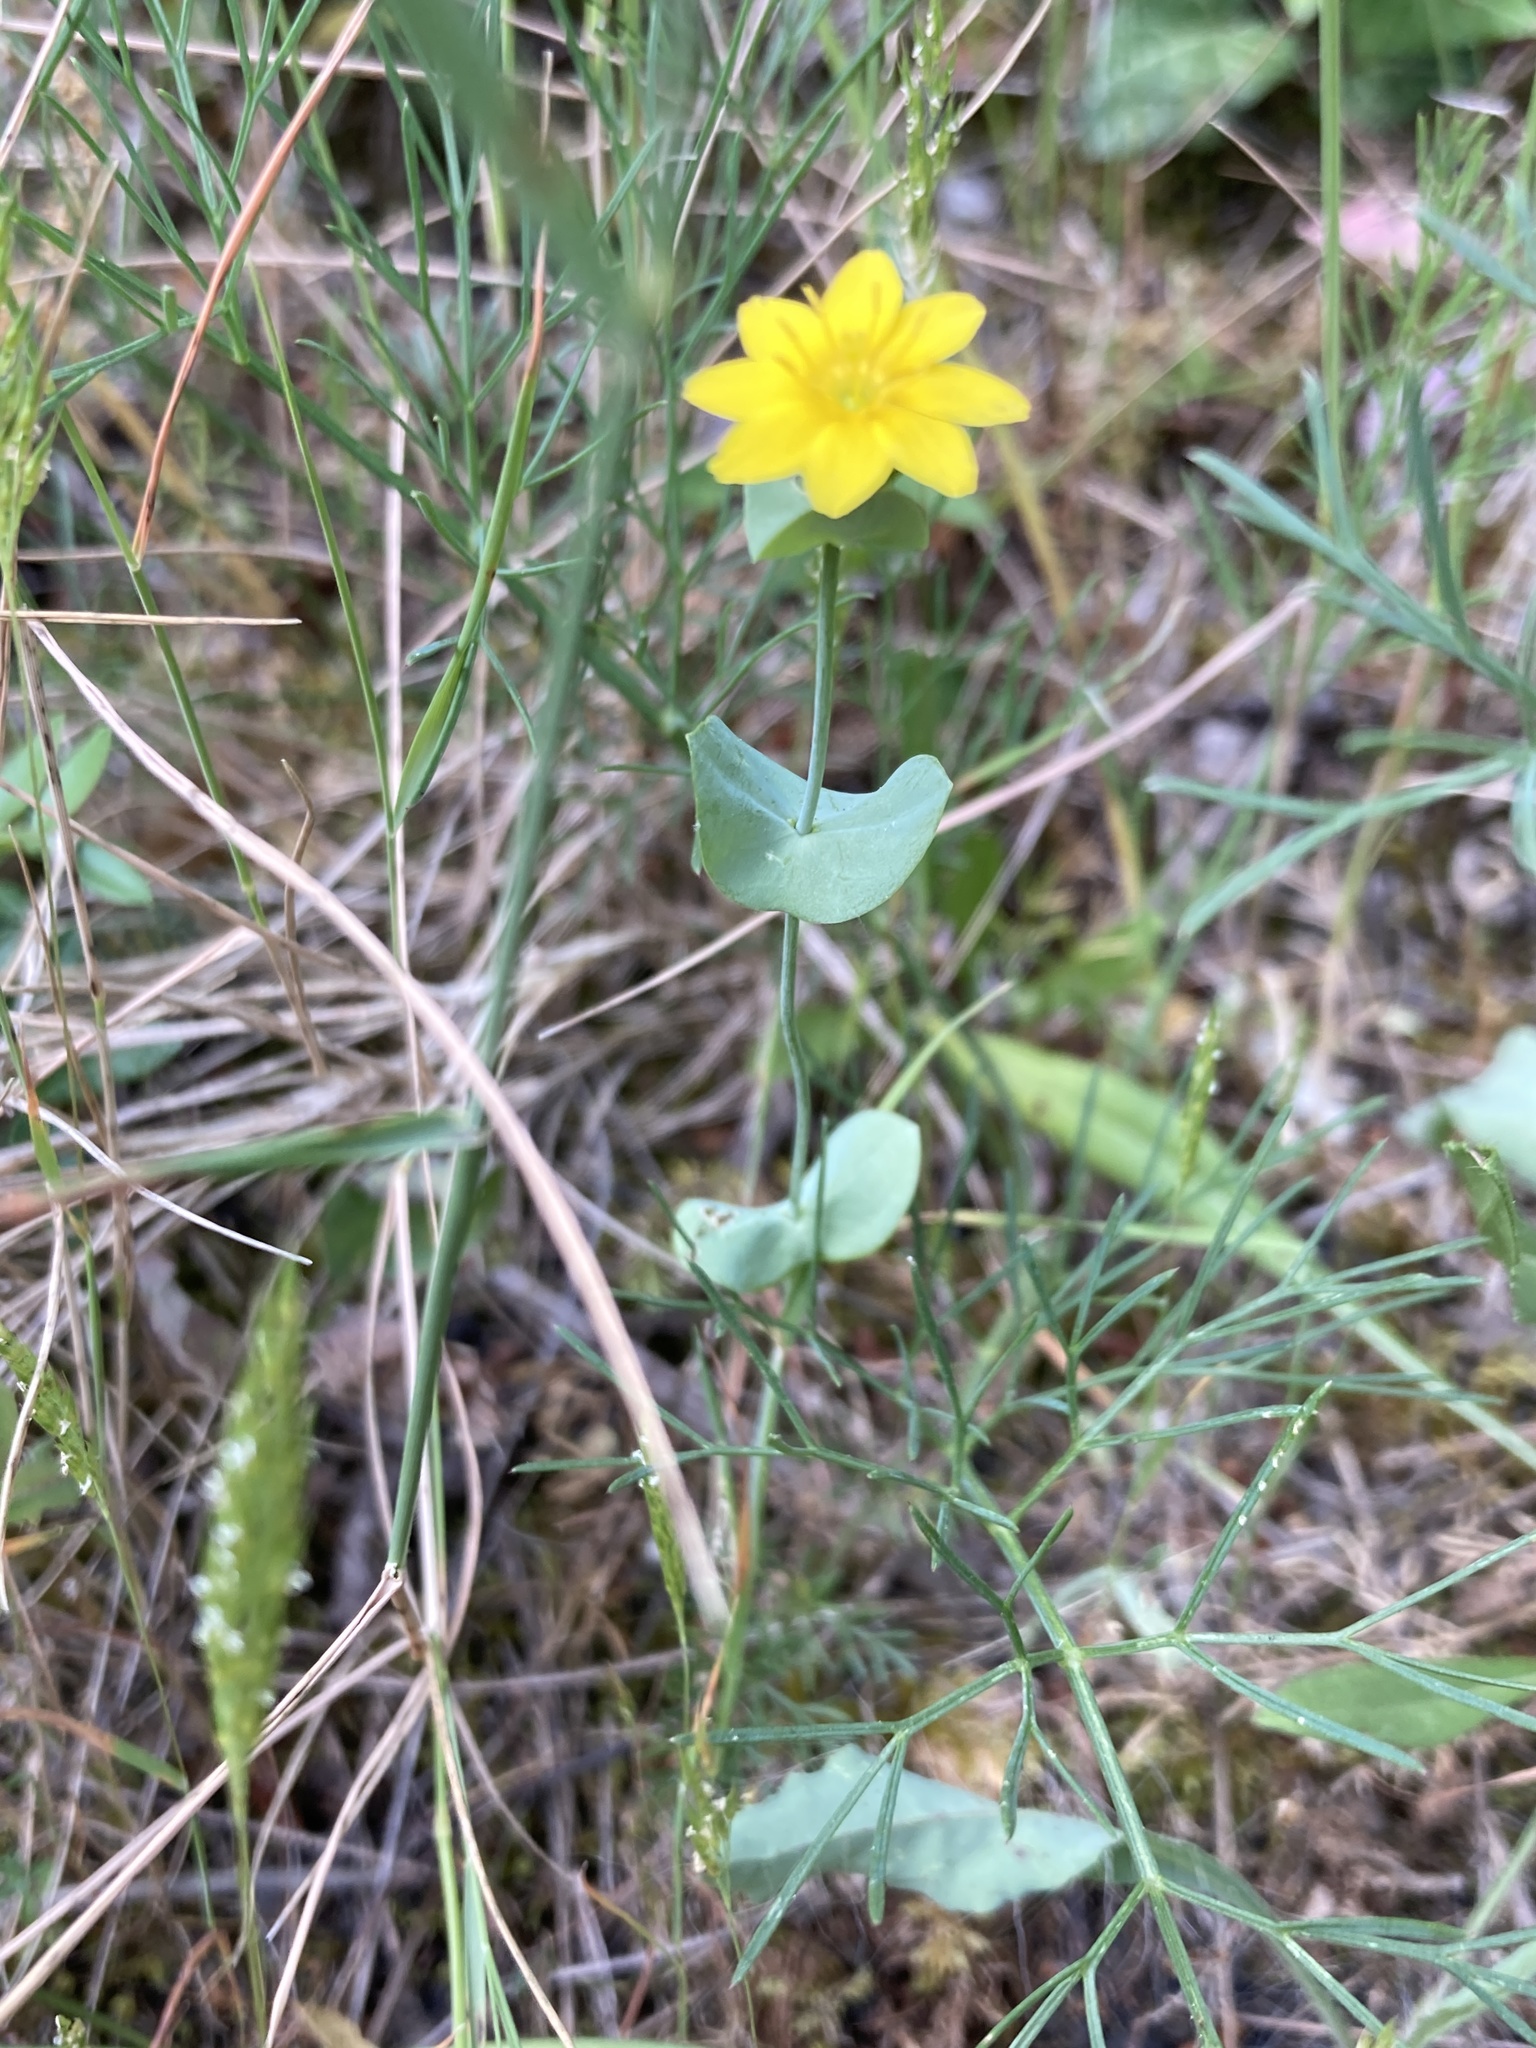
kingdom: Plantae
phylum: Tracheophyta
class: Magnoliopsida
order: Gentianales
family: Gentianaceae
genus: Blackstonia
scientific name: Blackstonia perfoliata
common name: Yellow-wort
